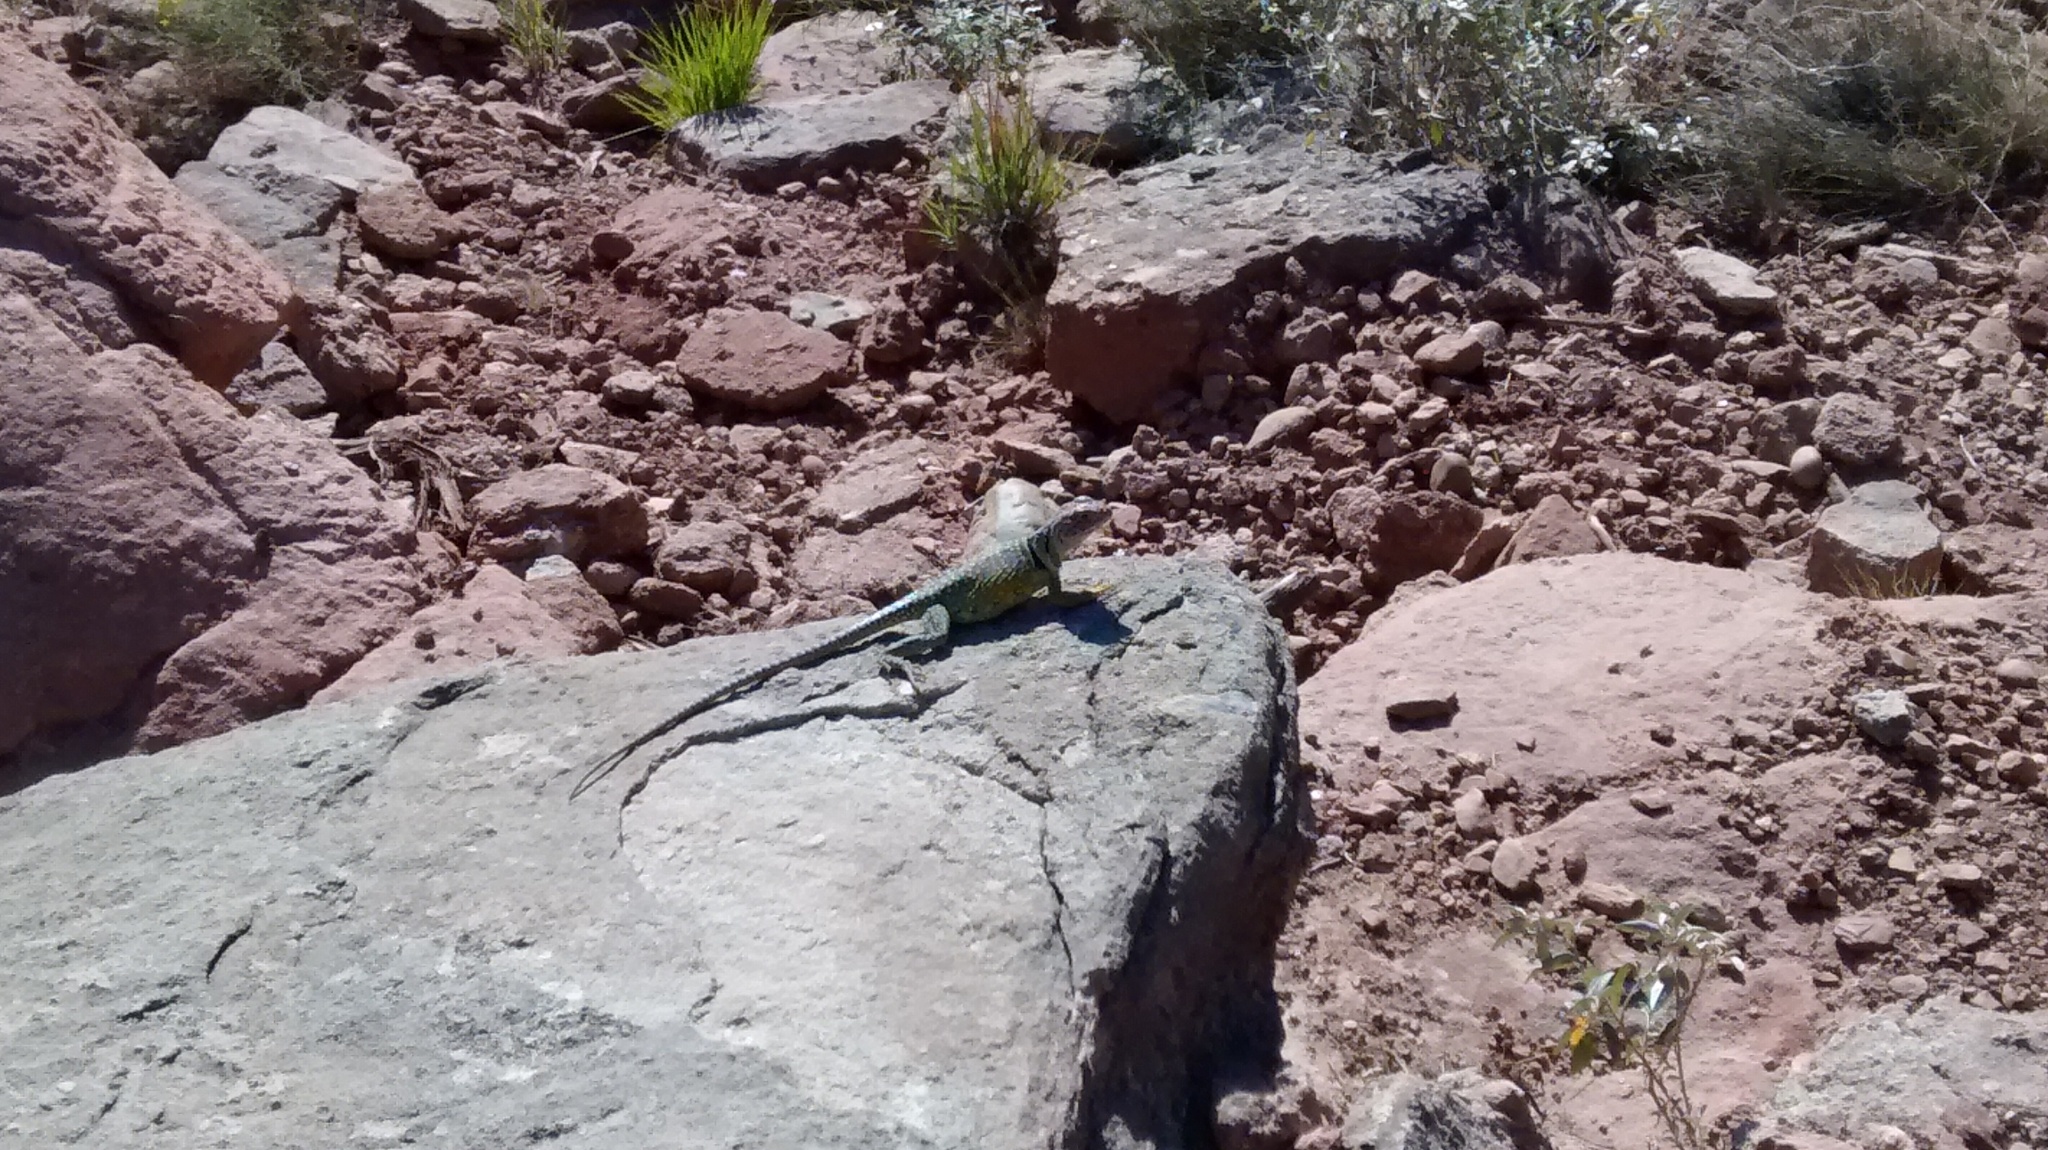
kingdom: Animalia
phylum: Chordata
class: Squamata
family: Crotaphytidae
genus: Crotaphytus
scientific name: Crotaphytus collaris
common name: Collared lizard
